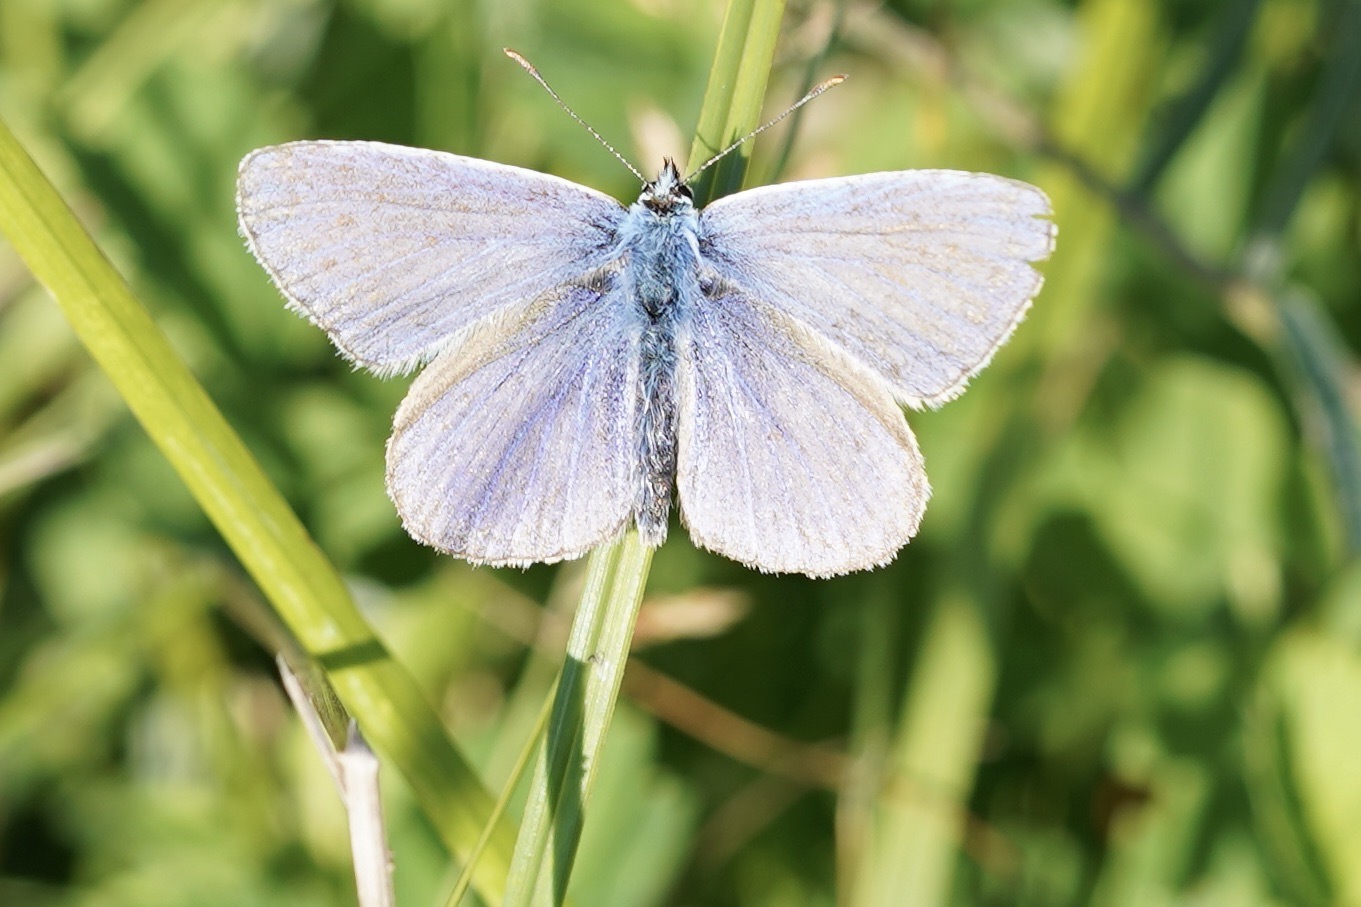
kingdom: Animalia
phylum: Arthropoda
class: Insecta
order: Lepidoptera
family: Lycaenidae
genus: Polyommatus
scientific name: Polyommatus icarus
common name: Common blue
